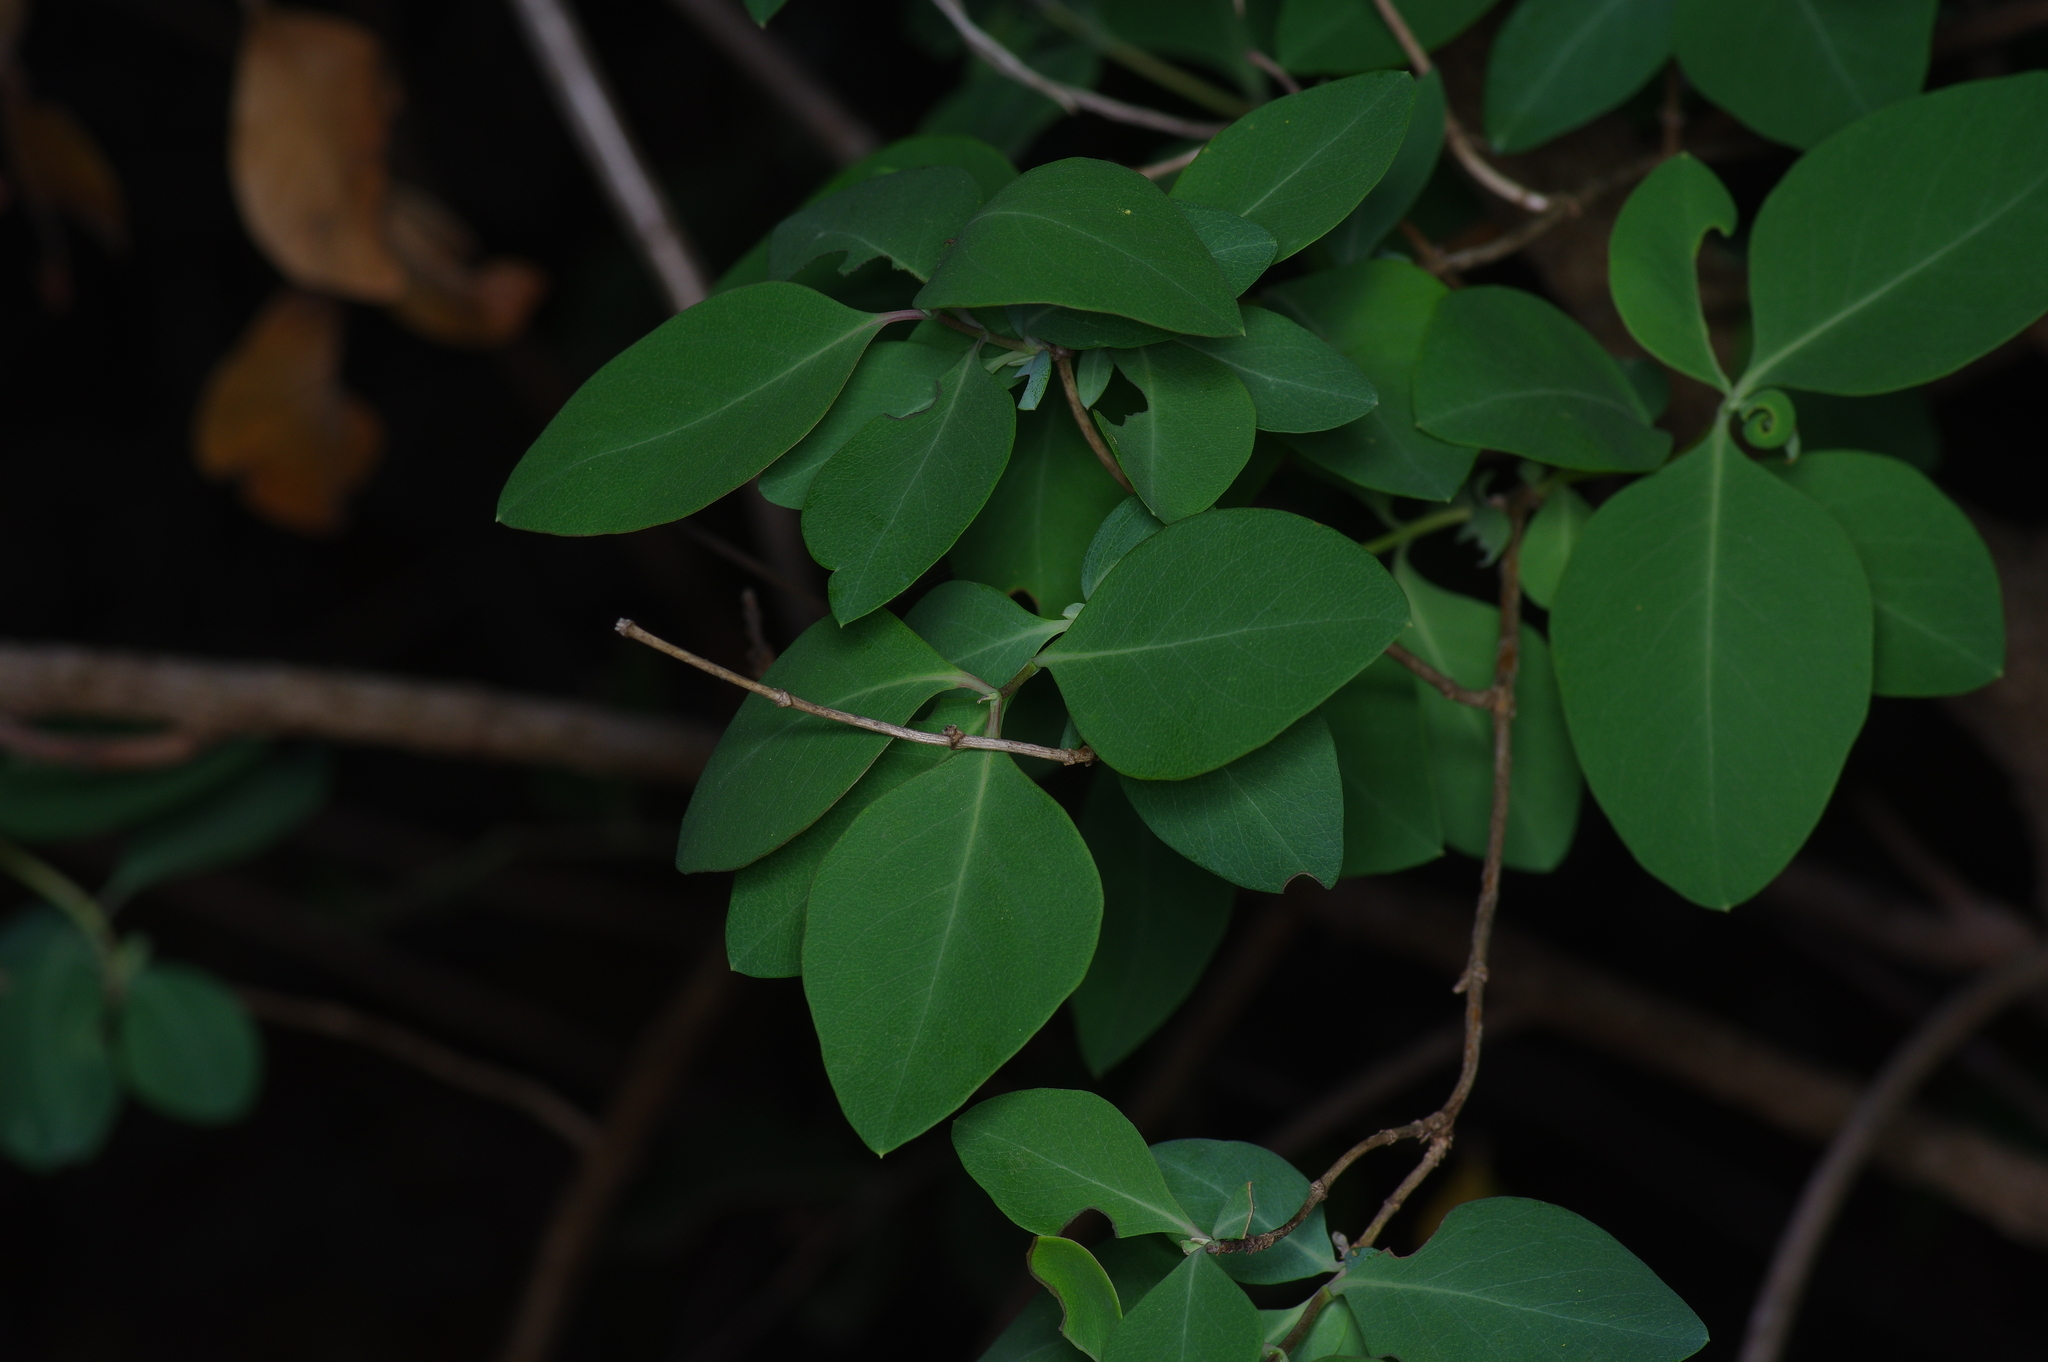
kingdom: Plantae
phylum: Tracheophyta
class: Magnoliopsida
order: Dipsacales
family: Caprifoliaceae
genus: Lonicera
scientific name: Lonicera albiflora
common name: White honeysuckle
